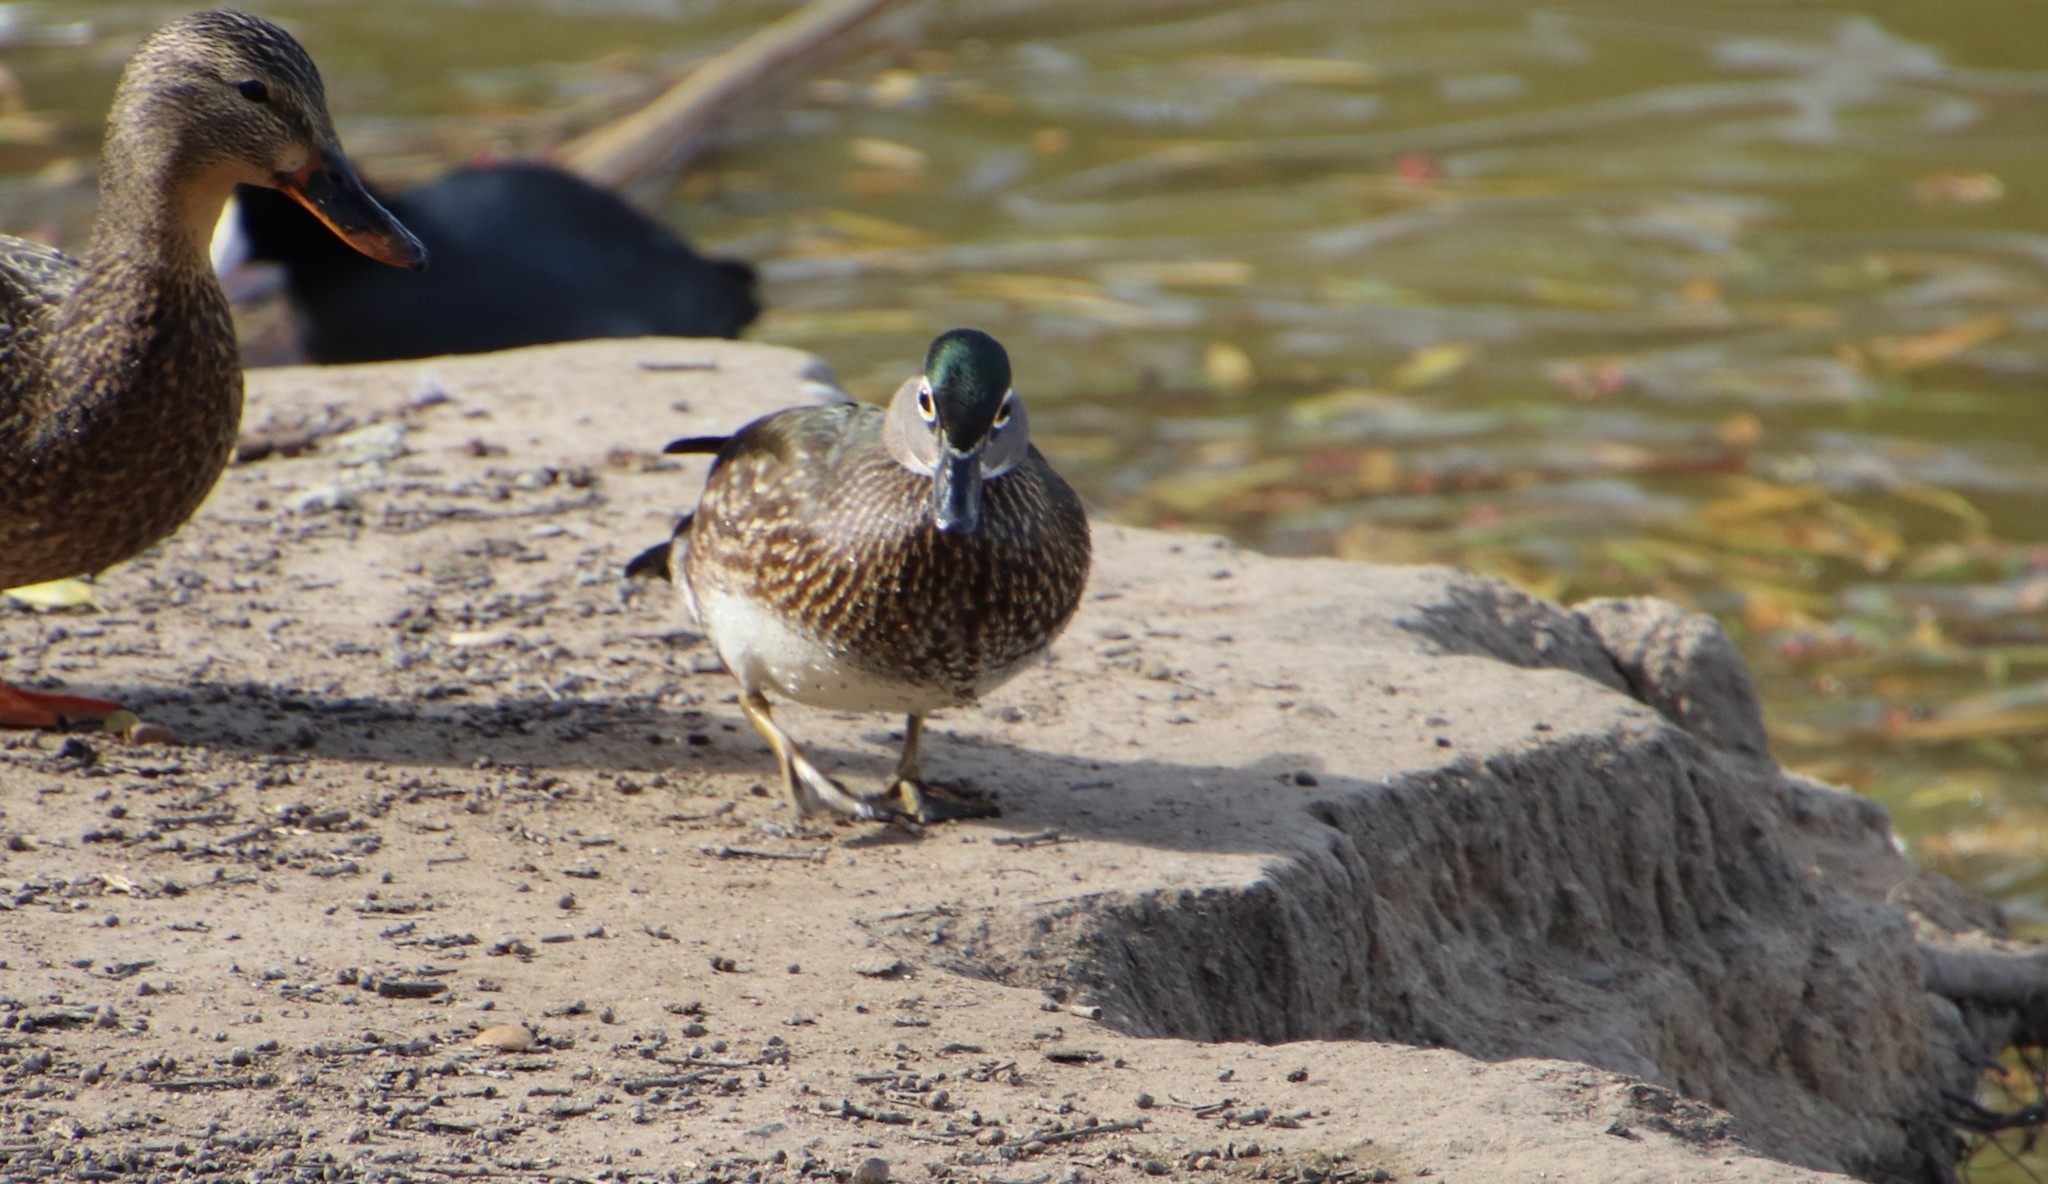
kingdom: Animalia
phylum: Chordata
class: Aves
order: Anseriformes
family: Anatidae
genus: Aix
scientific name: Aix sponsa
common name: Wood duck
